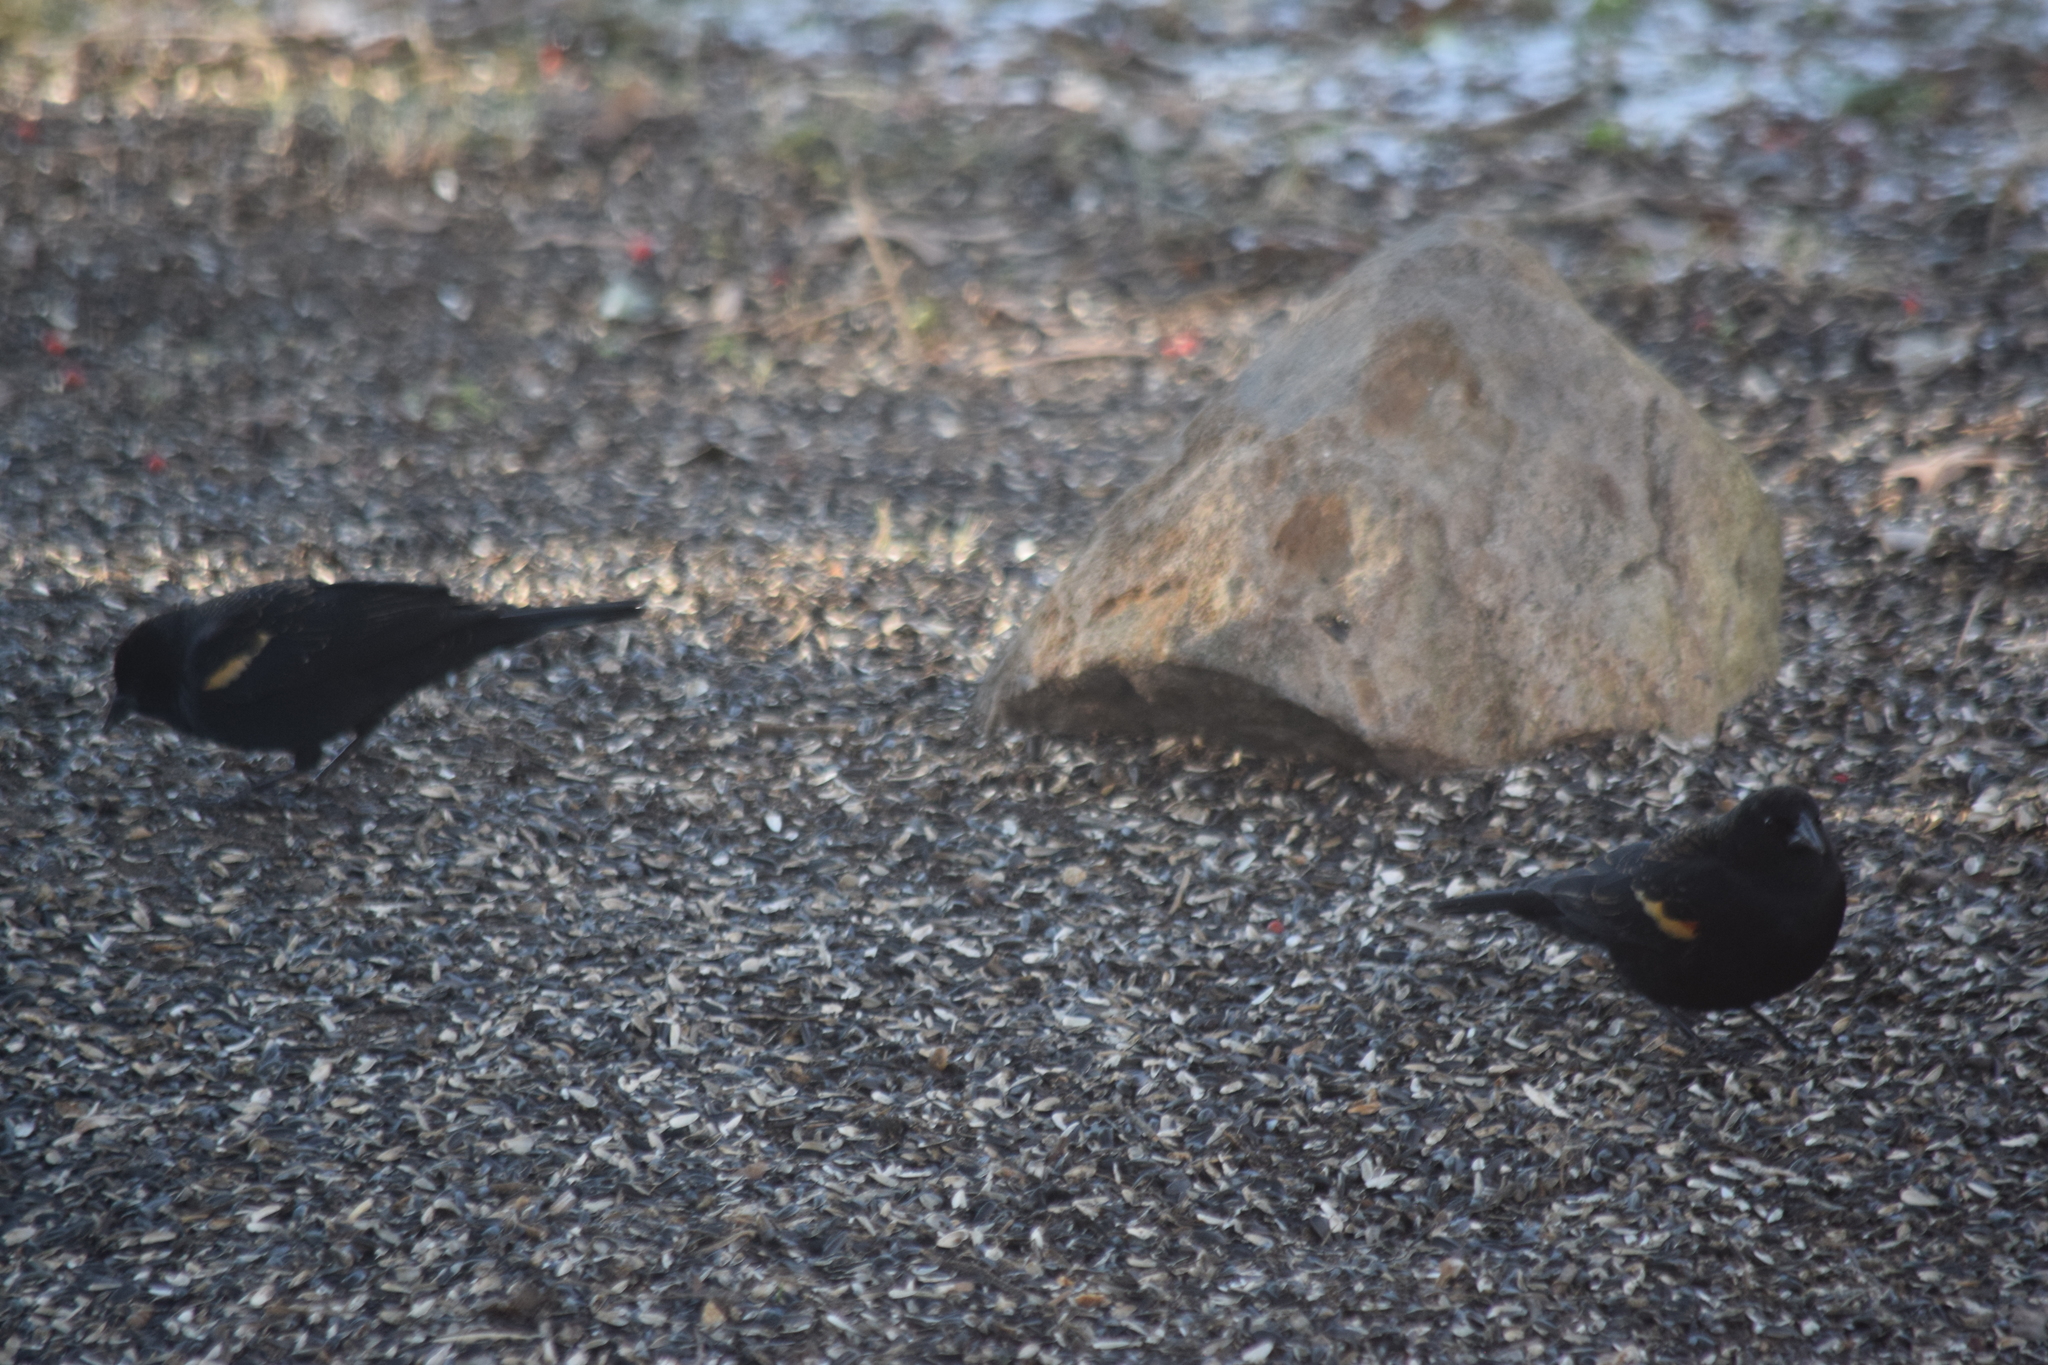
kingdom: Animalia
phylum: Chordata
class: Aves
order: Passeriformes
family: Icteridae
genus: Agelaius
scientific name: Agelaius phoeniceus
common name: Red-winged blackbird
